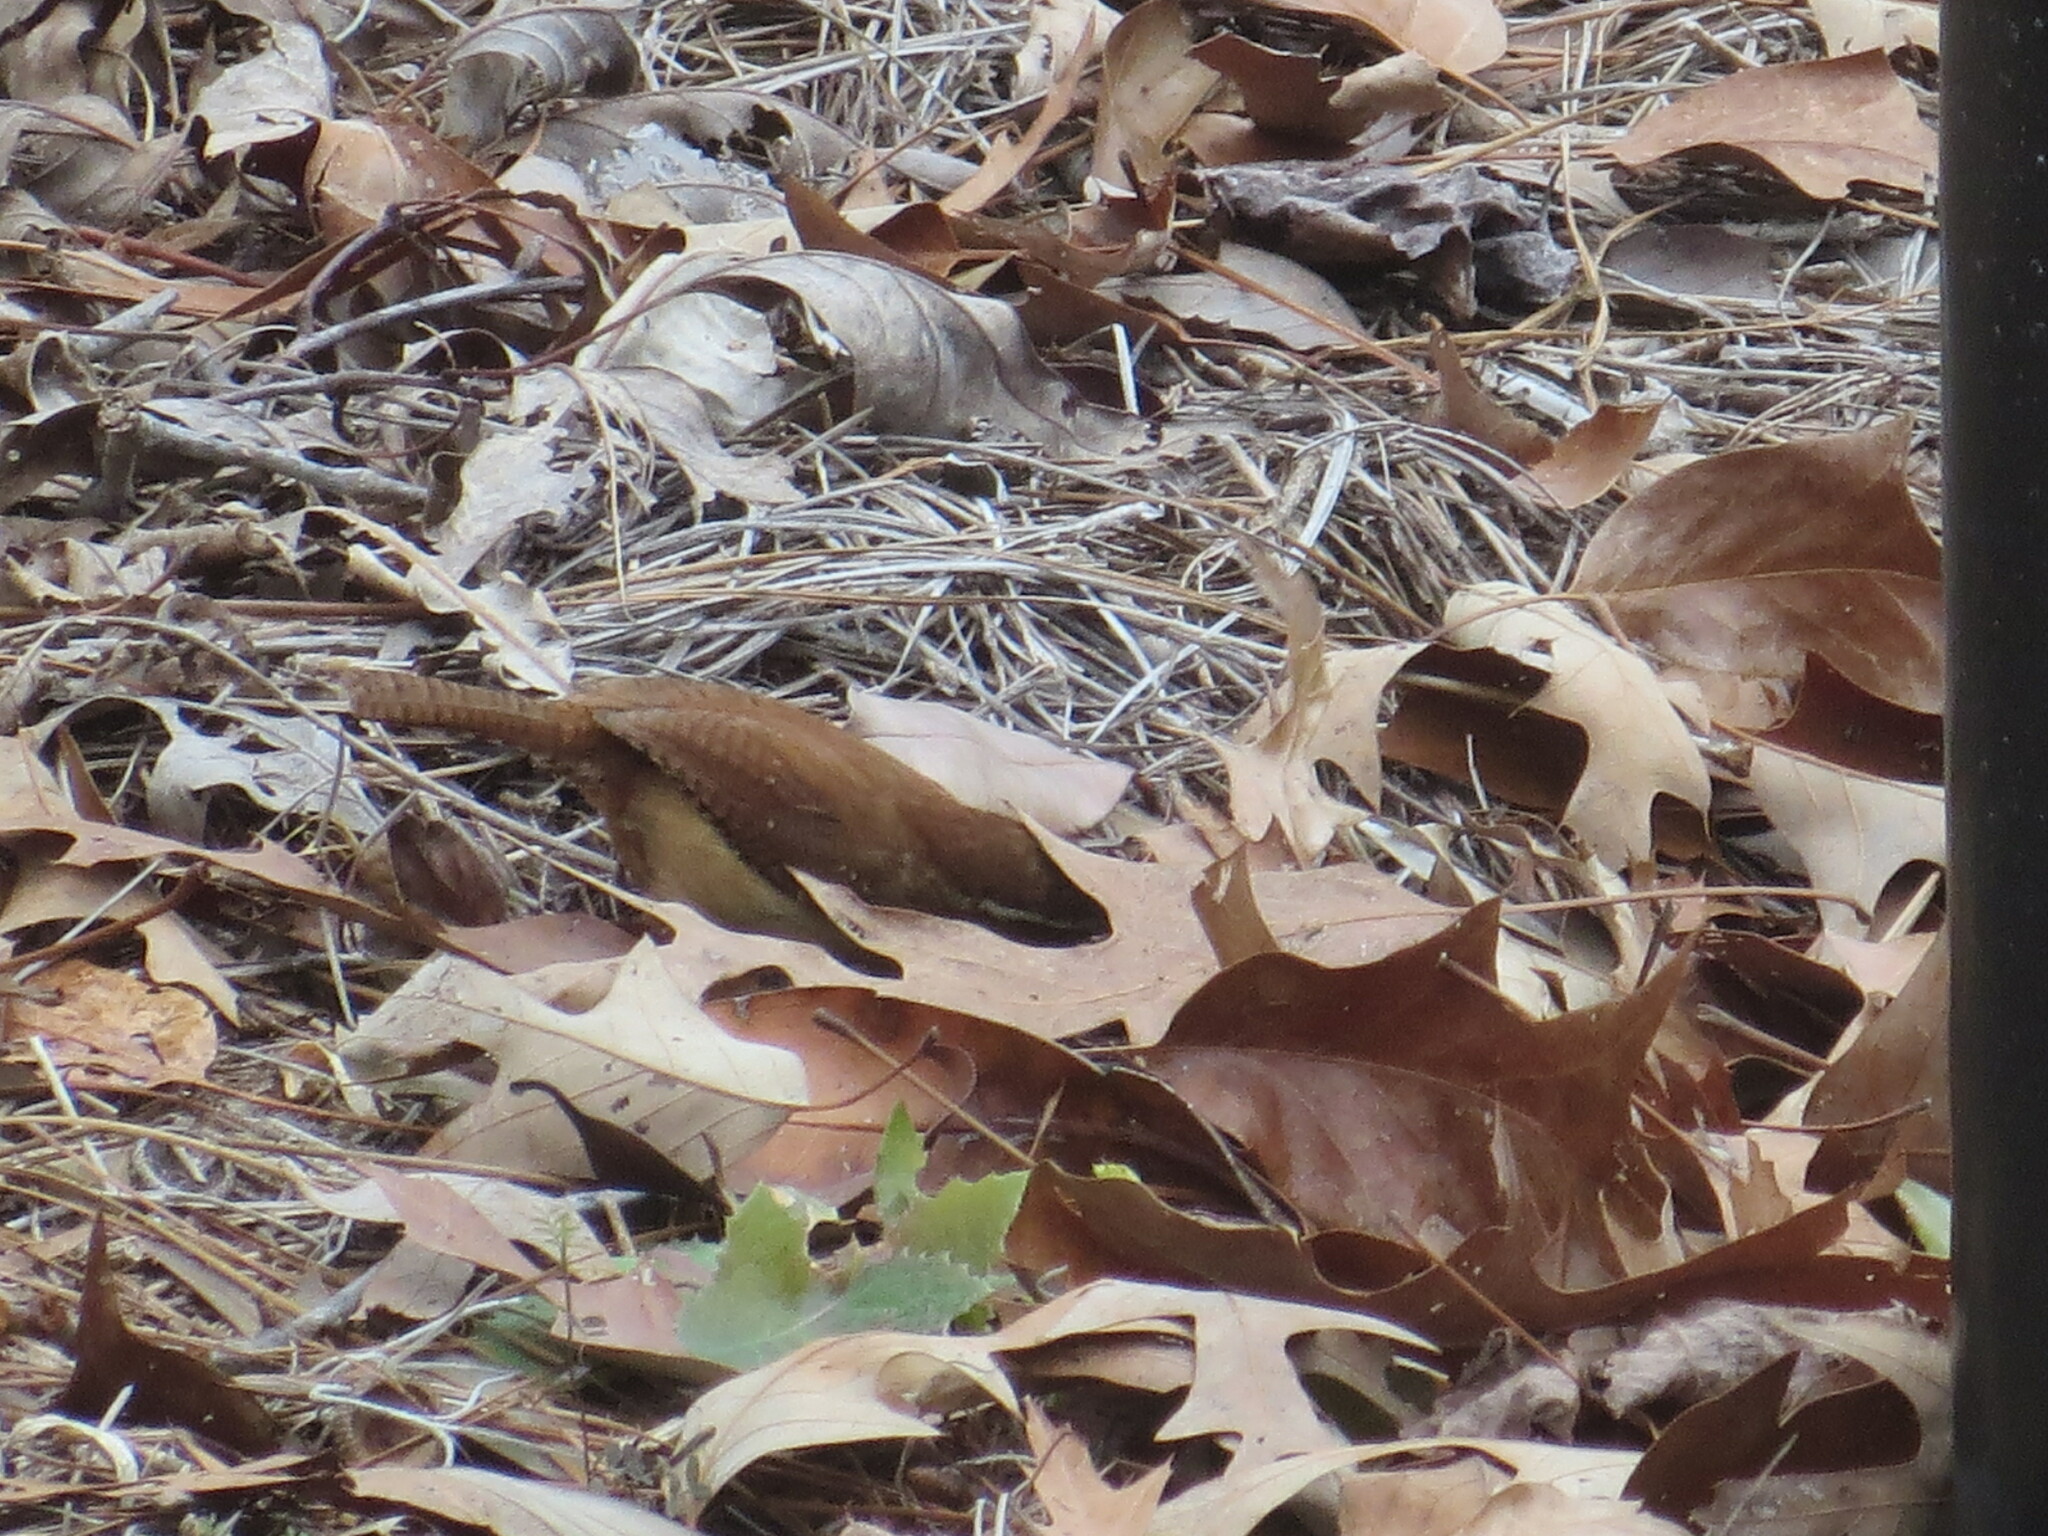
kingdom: Animalia
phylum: Chordata
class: Aves
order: Passeriformes
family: Troglodytidae
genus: Thryothorus
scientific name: Thryothorus ludovicianus
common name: Carolina wren
